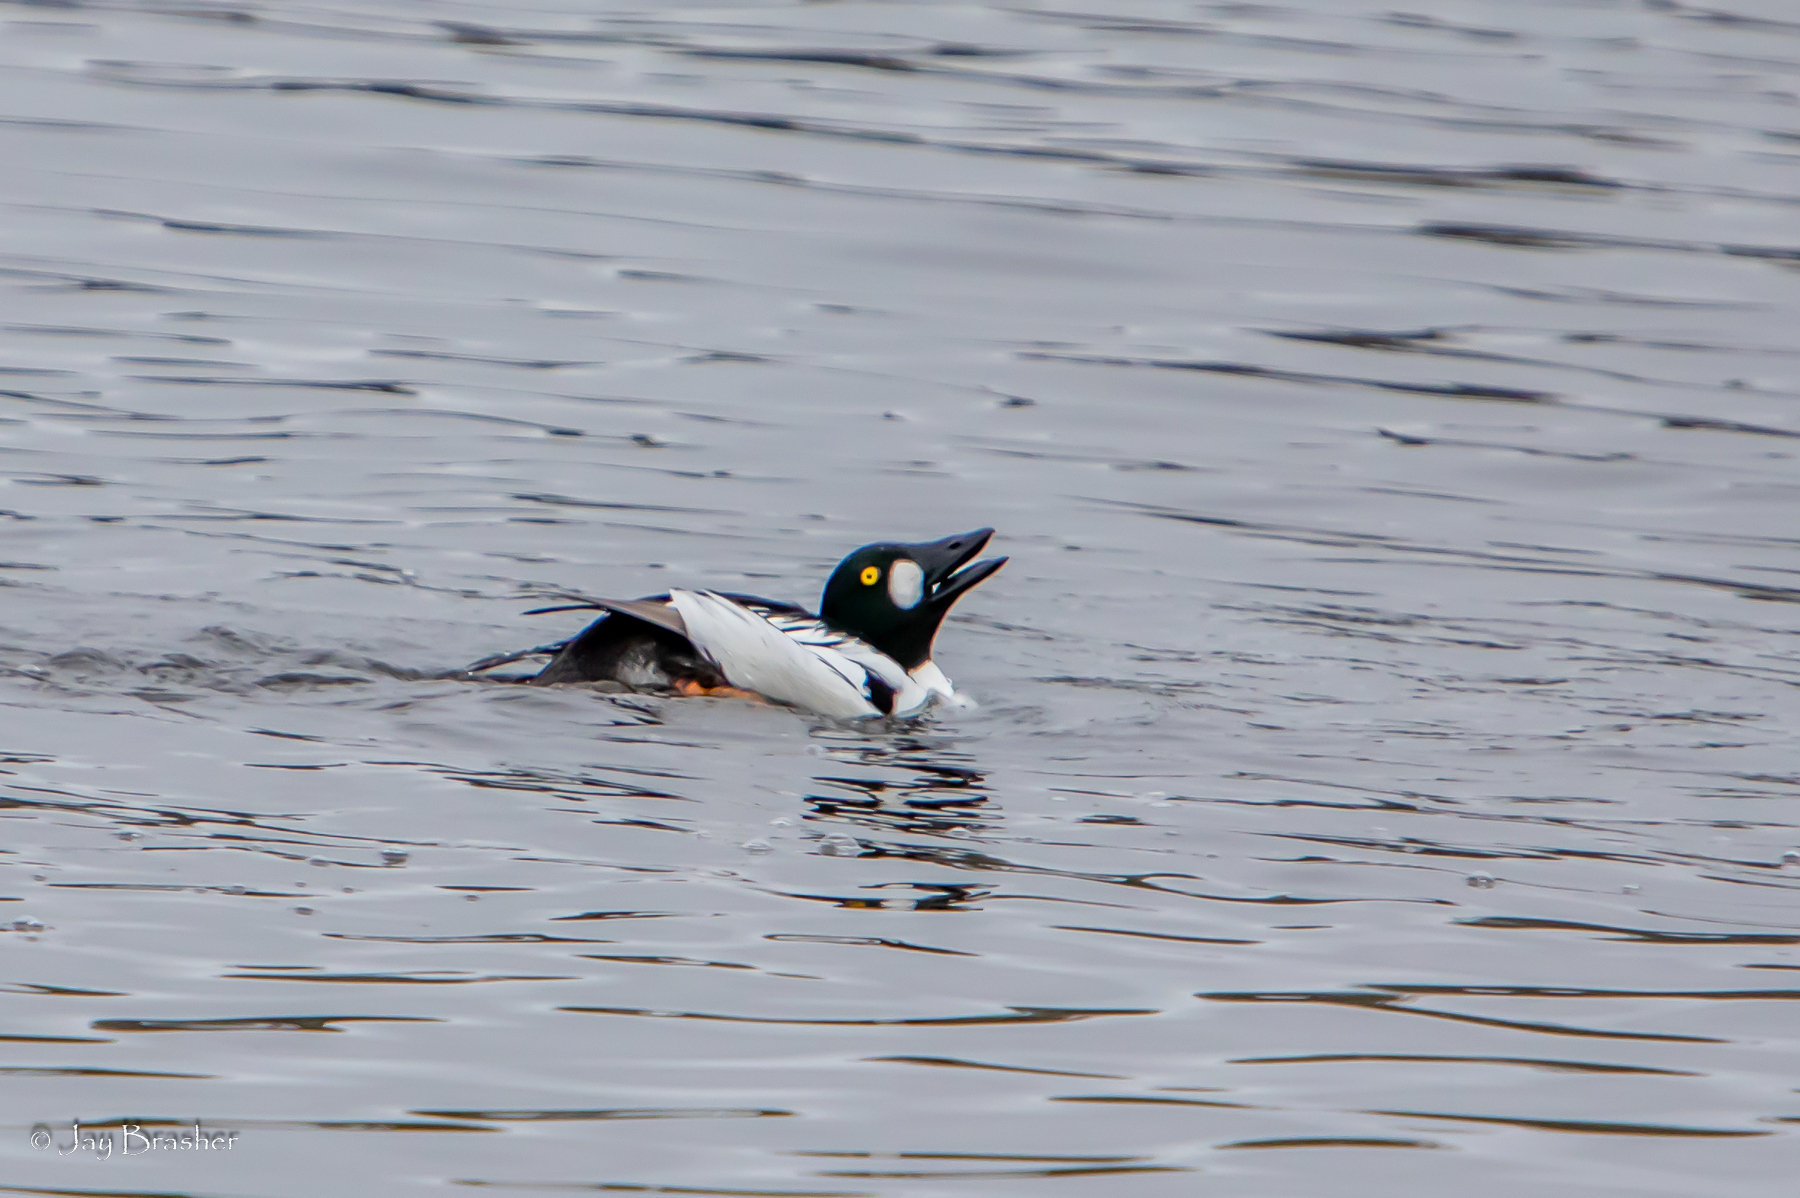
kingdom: Animalia
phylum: Chordata
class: Aves
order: Anseriformes
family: Anatidae
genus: Bucephala
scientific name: Bucephala clangula
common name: Common goldeneye
